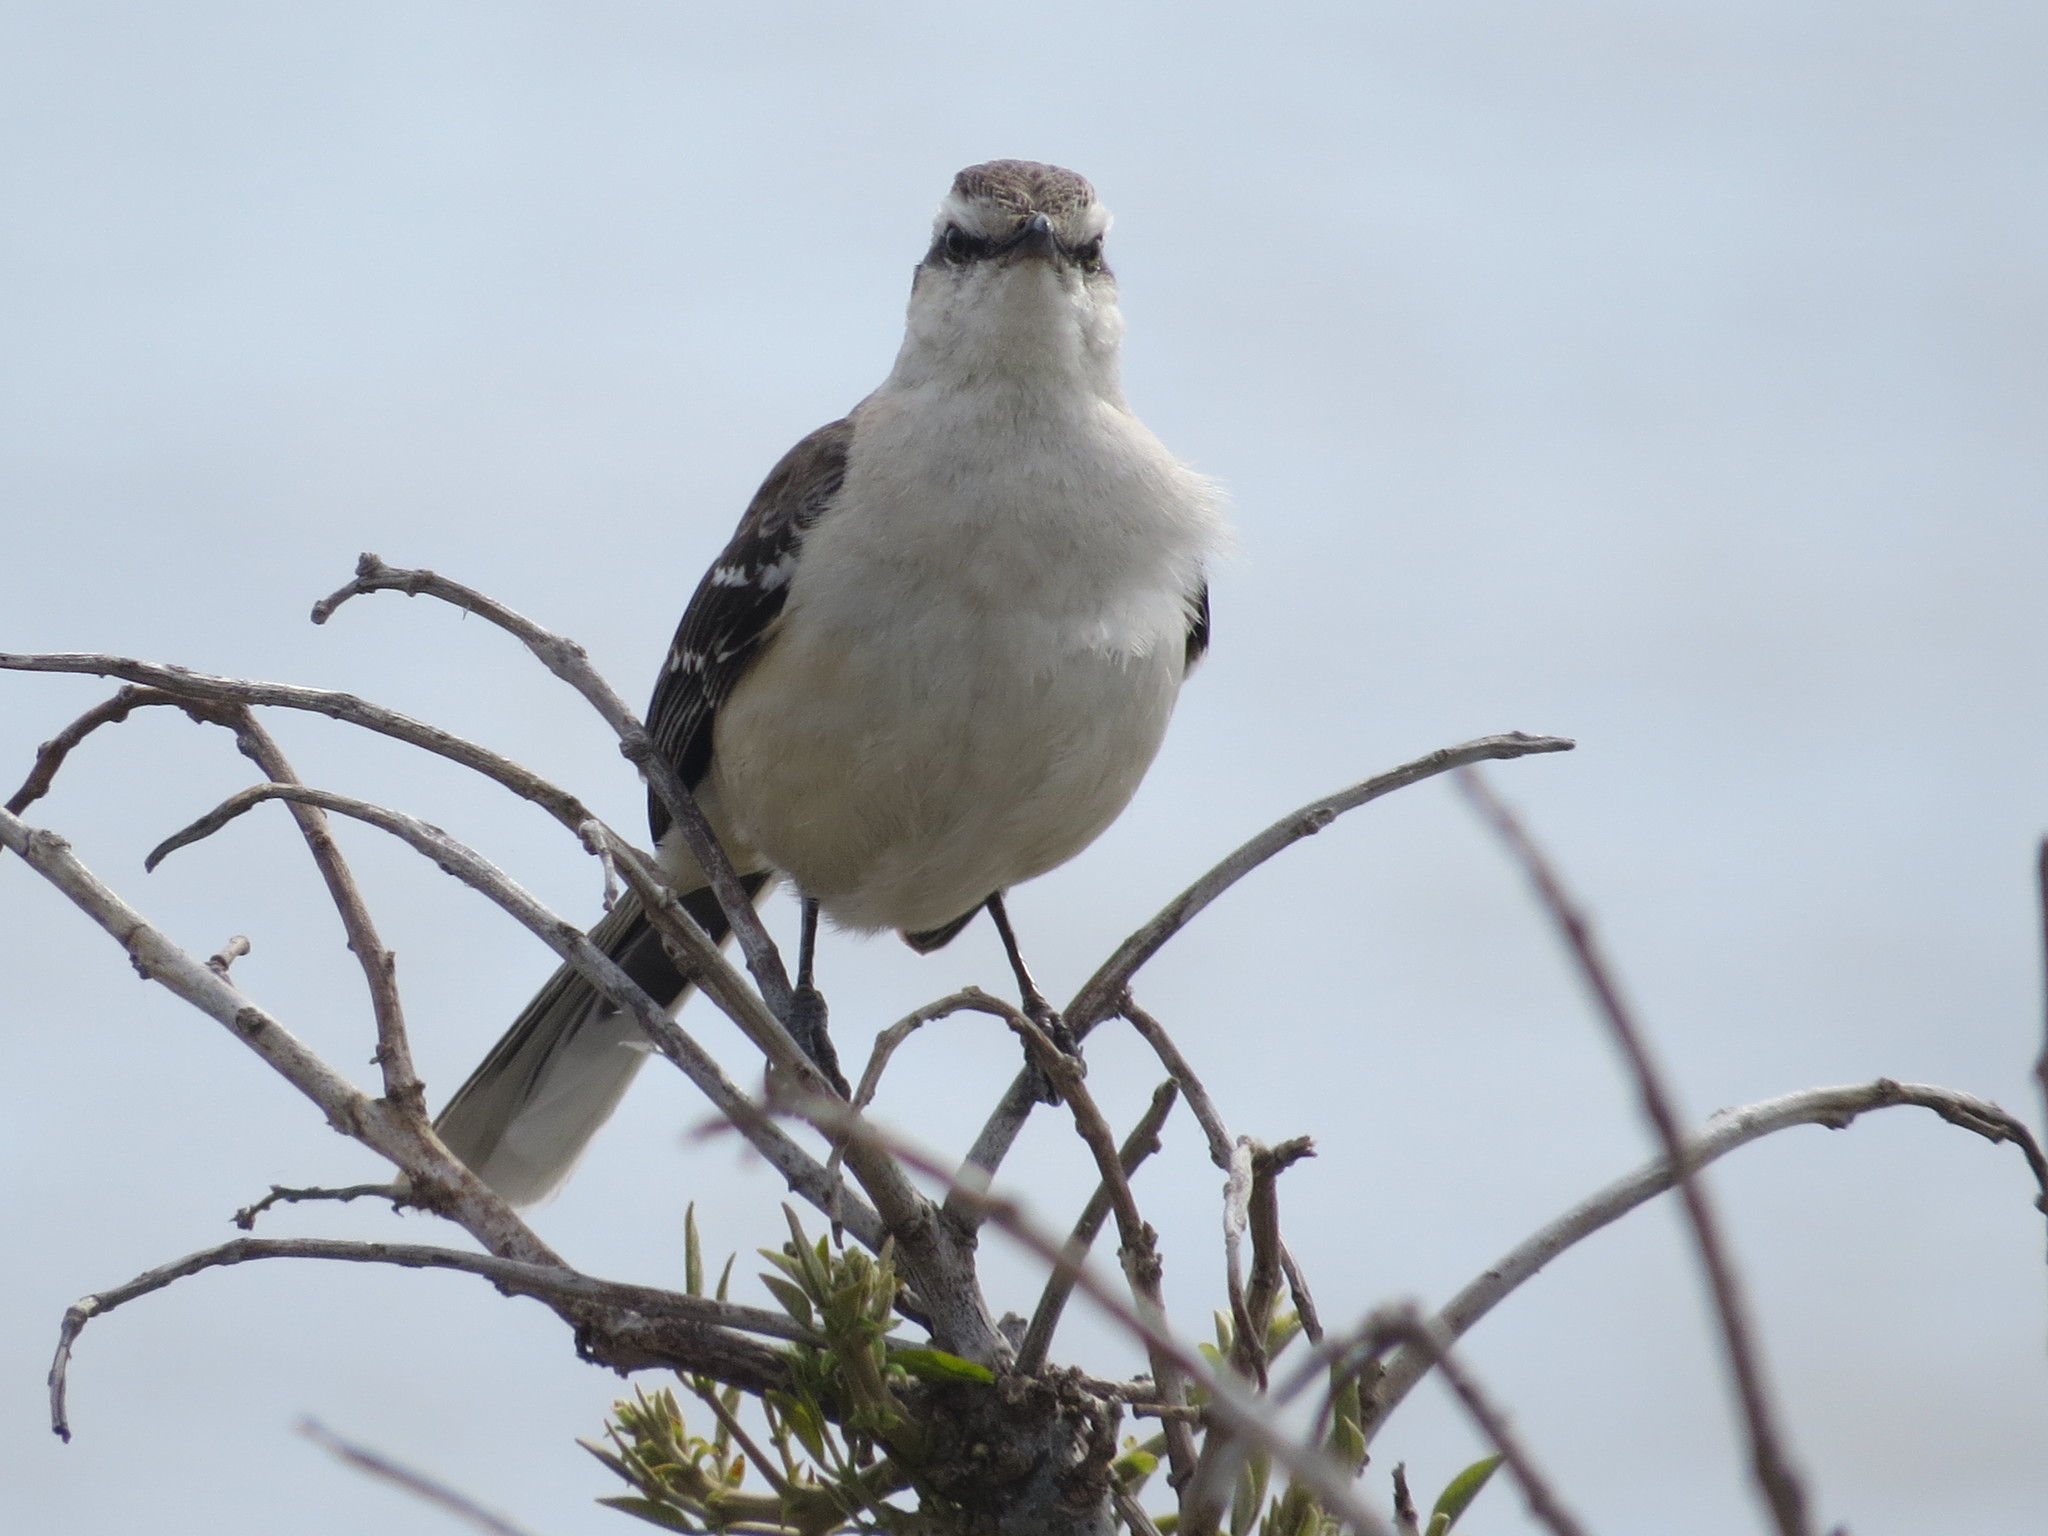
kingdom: Animalia
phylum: Chordata
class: Aves
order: Passeriformes
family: Mimidae
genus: Mimus
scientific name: Mimus saturninus
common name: Chalk-browed mockingbird
